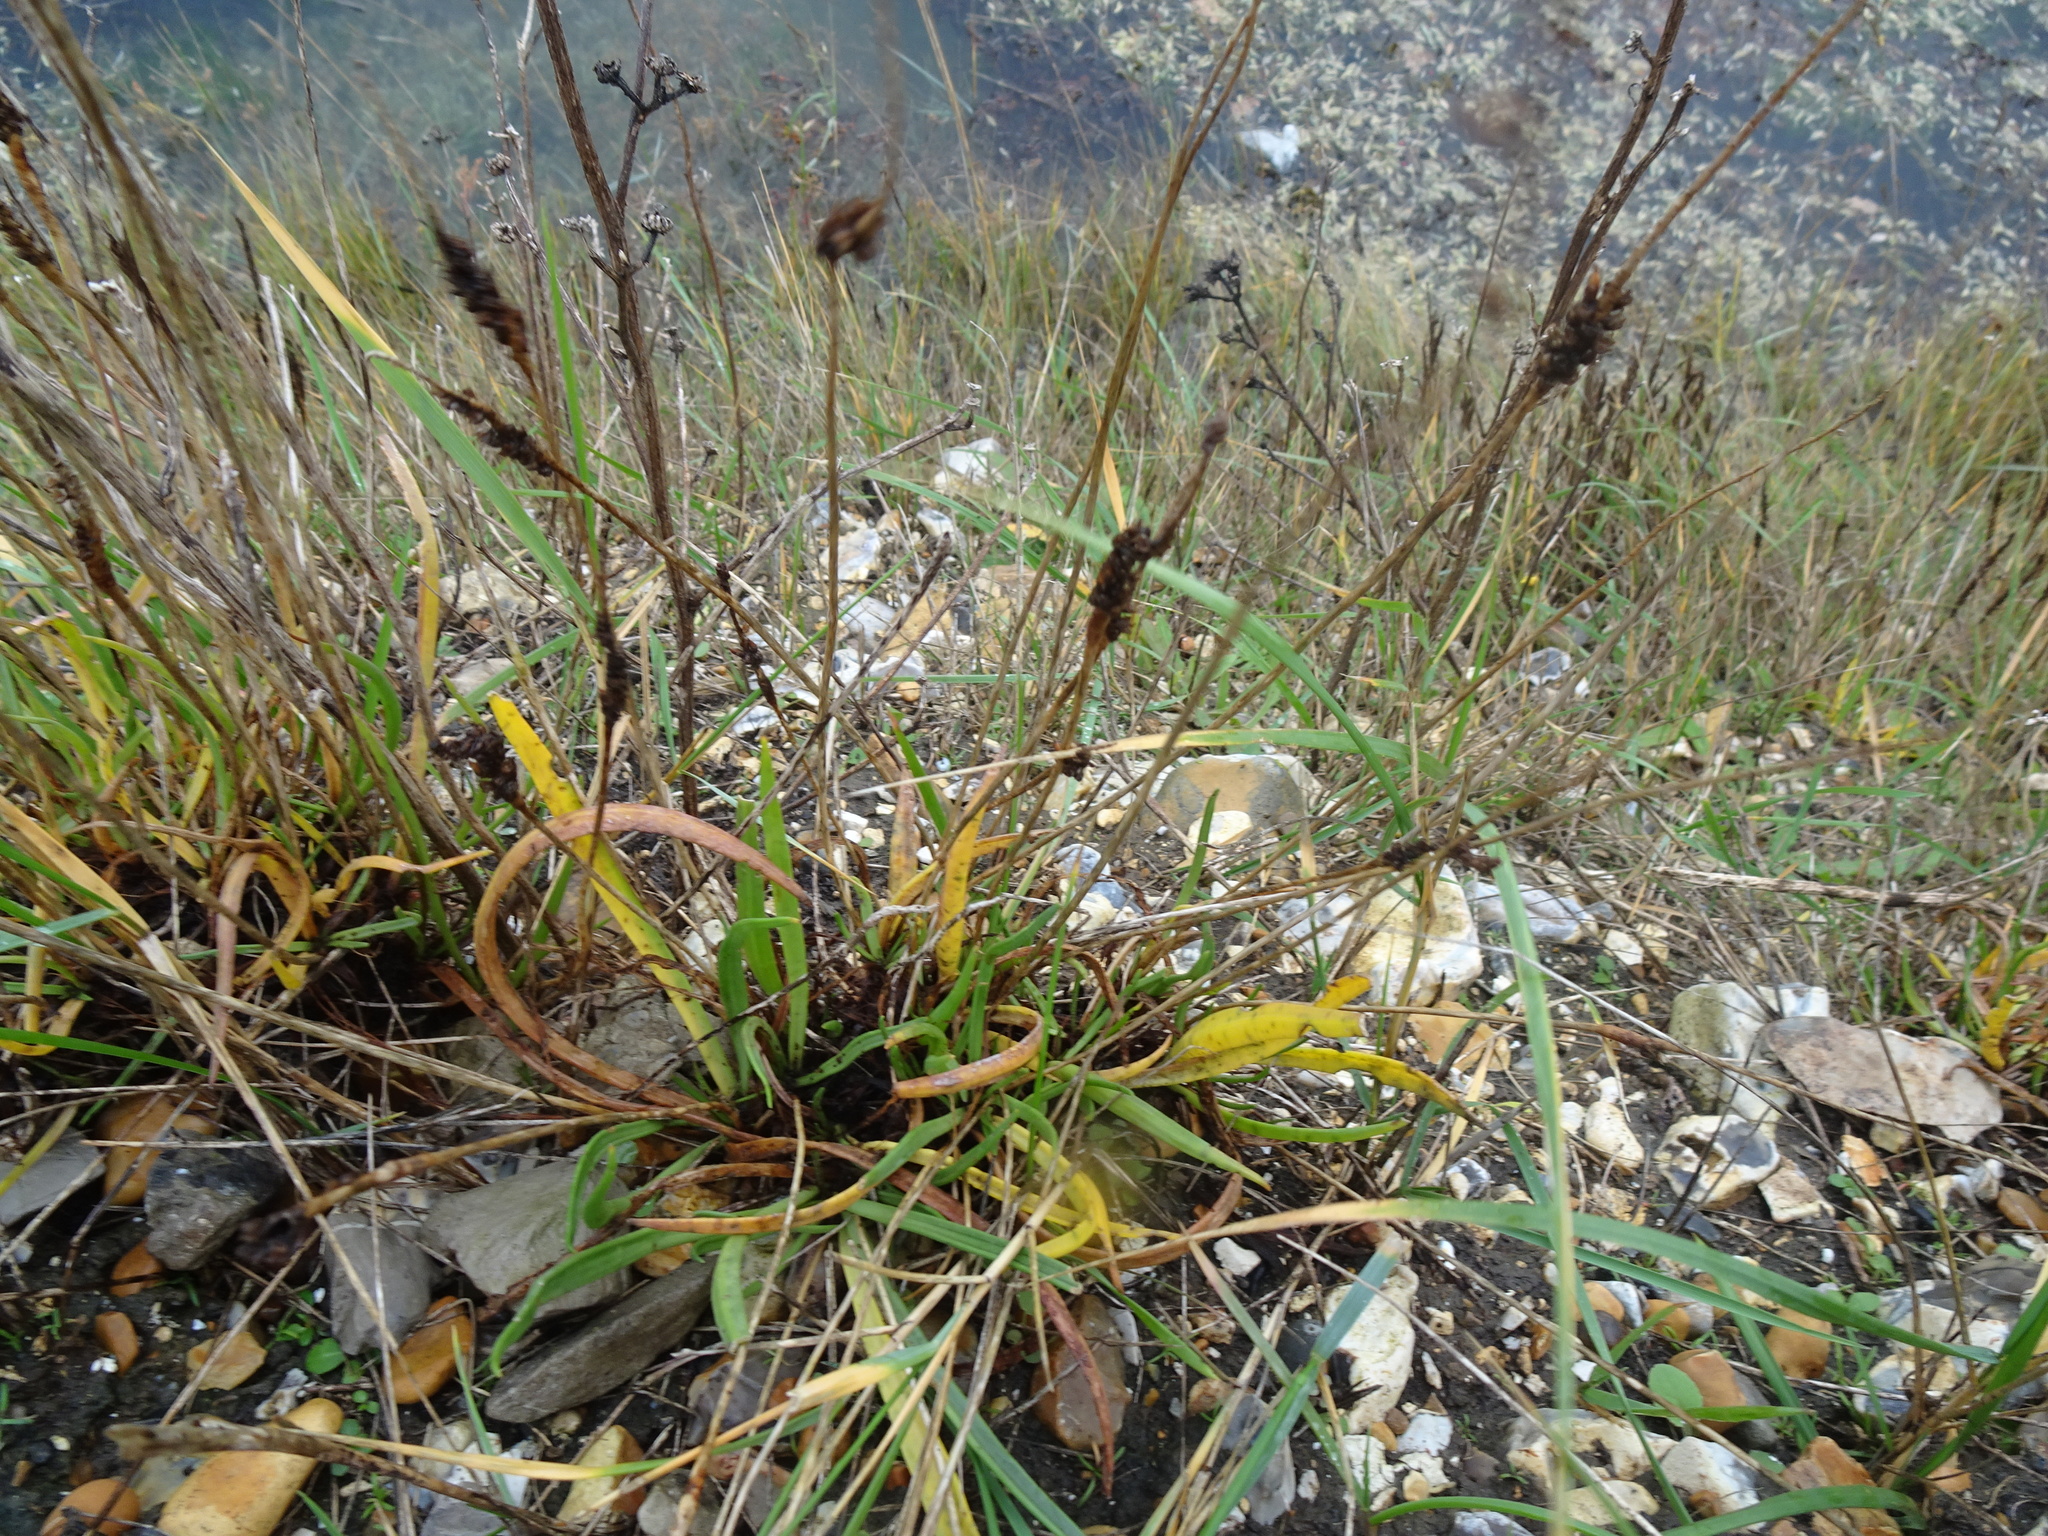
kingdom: Plantae
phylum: Tracheophyta
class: Magnoliopsida
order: Lamiales
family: Plantaginaceae
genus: Plantago
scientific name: Plantago maritima
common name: Sea plantain
